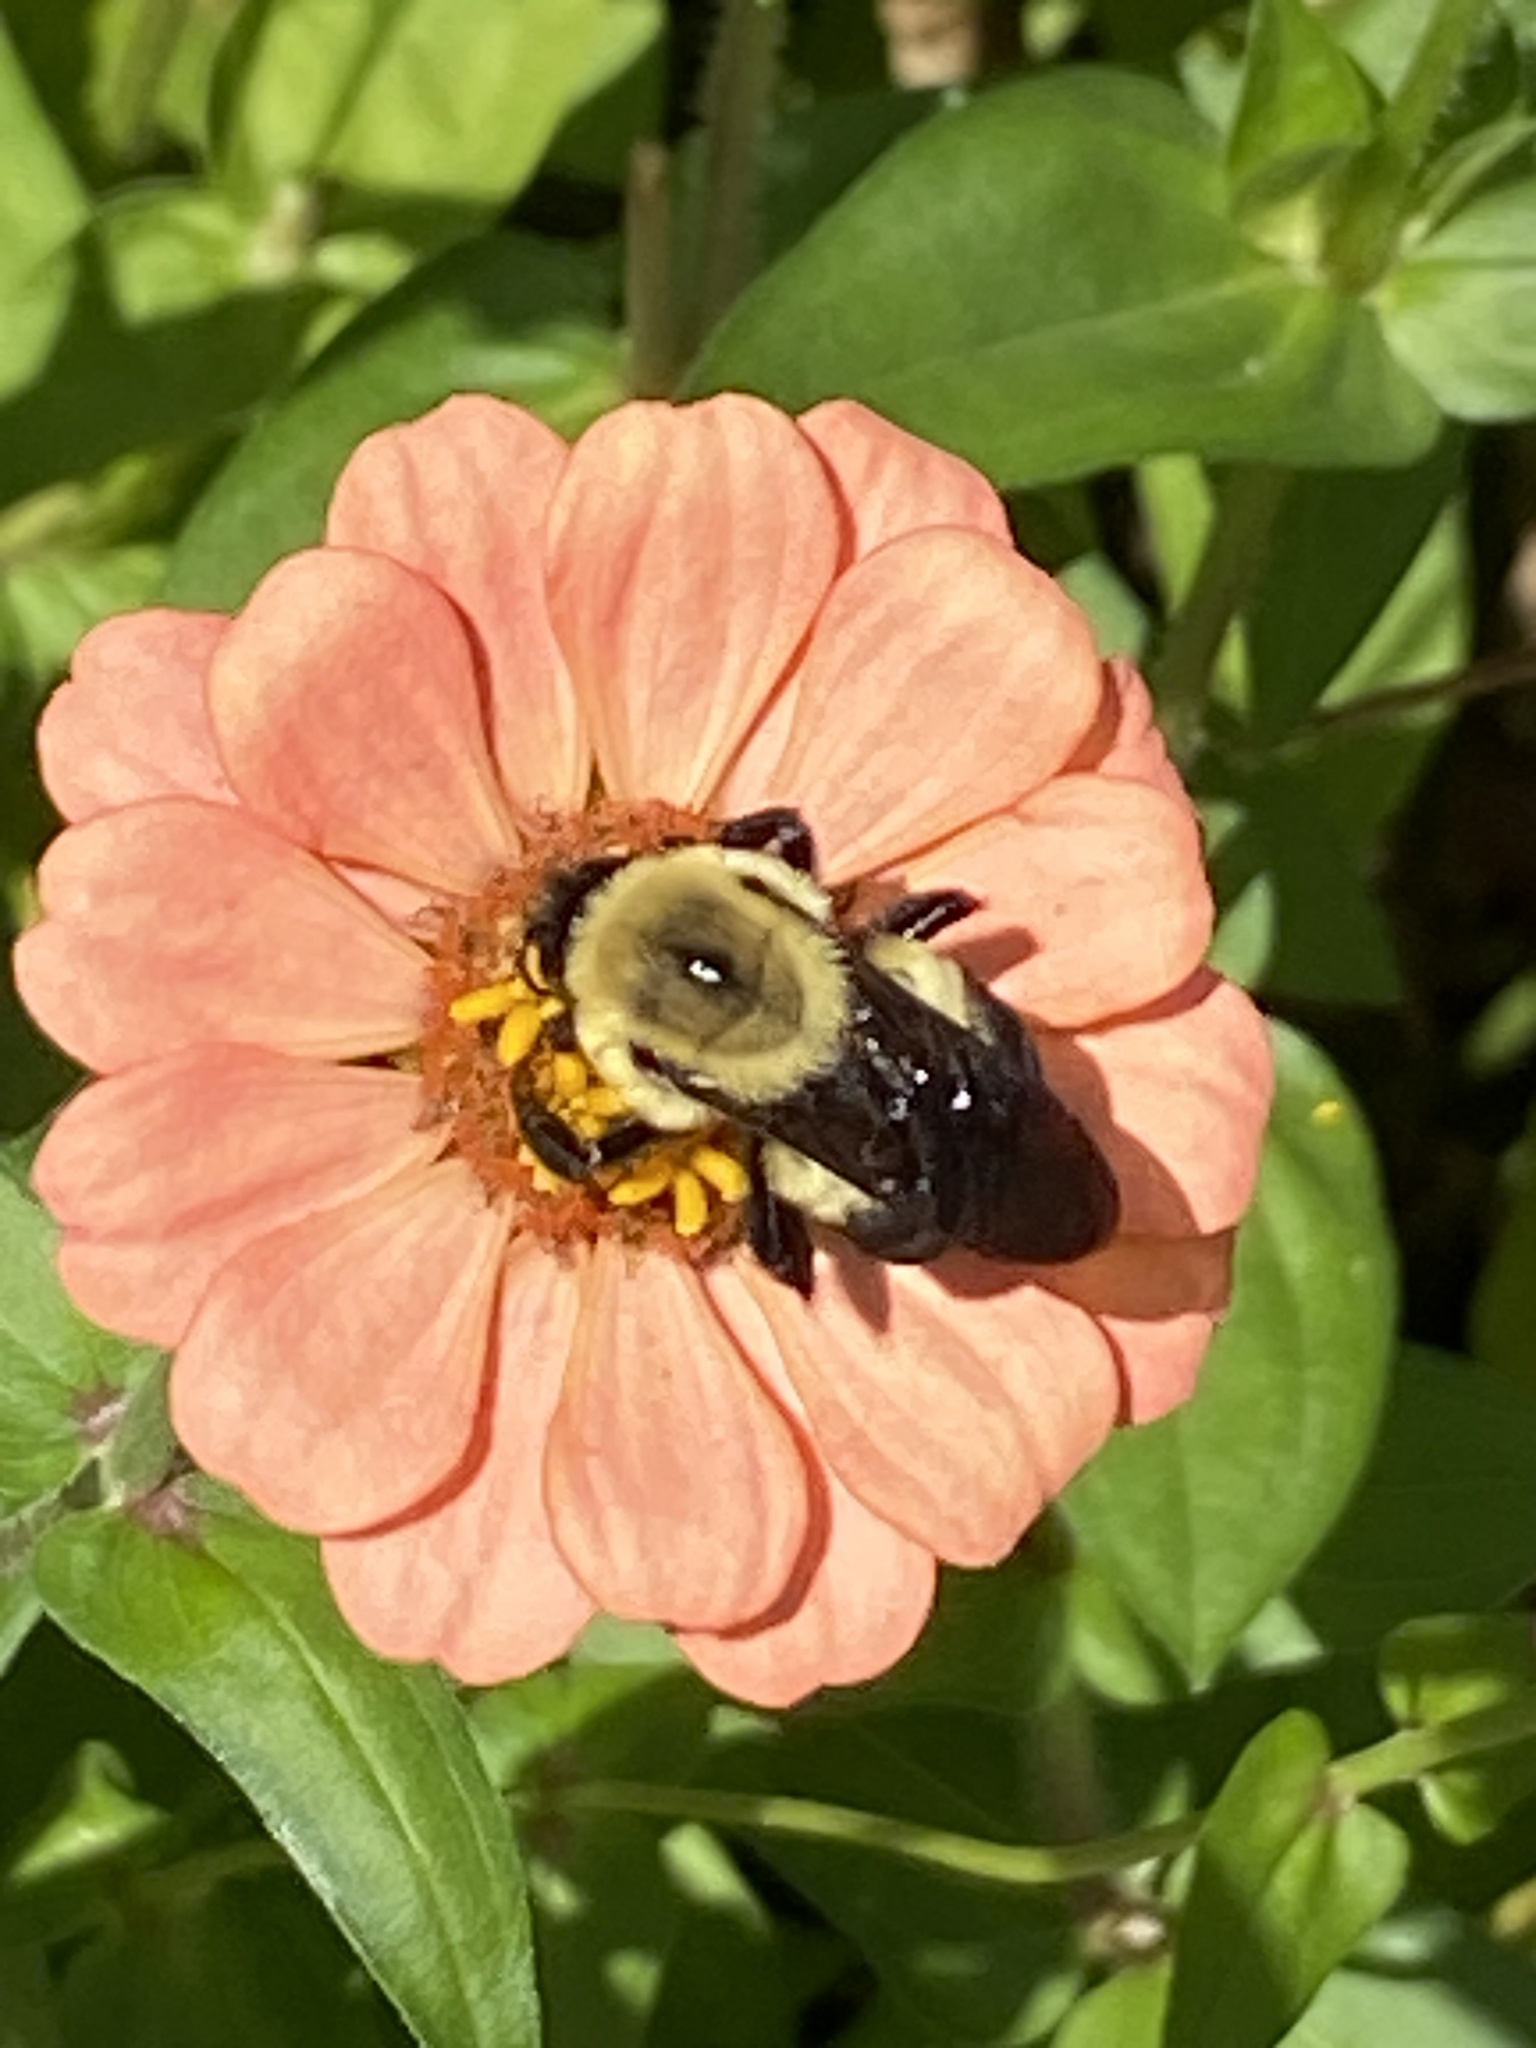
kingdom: Animalia
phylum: Arthropoda
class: Insecta
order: Hymenoptera
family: Apidae
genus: Bombus
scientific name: Bombus griseocollis
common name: Brown-belted bumble bee
